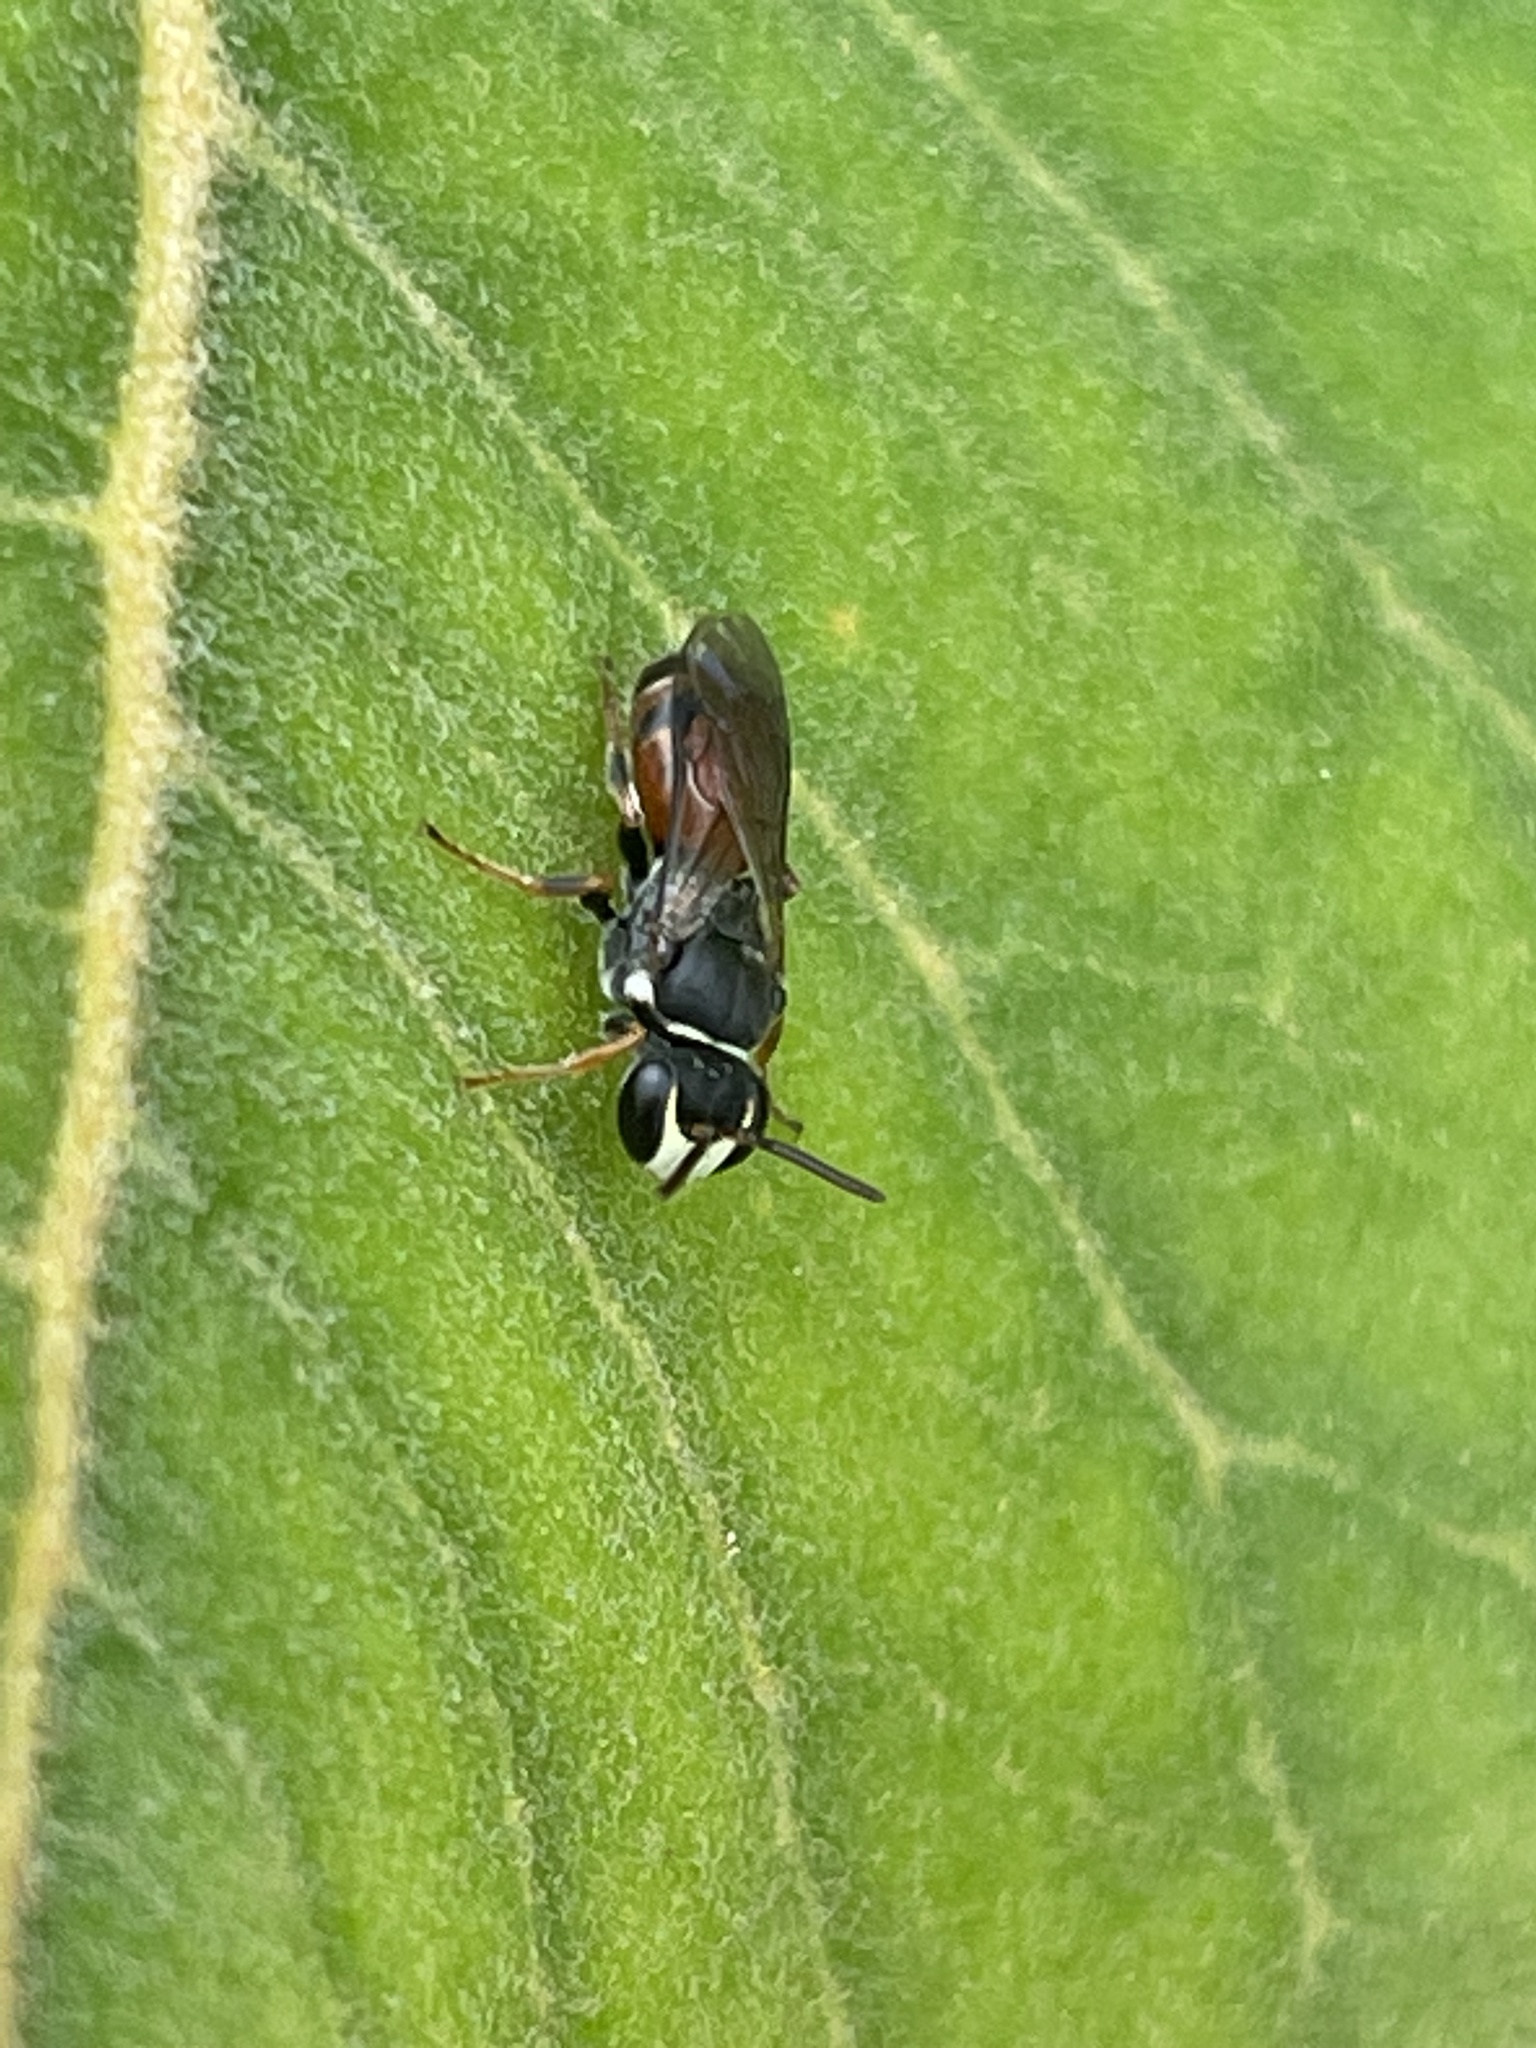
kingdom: Animalia
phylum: Arthropoda
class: Insecta
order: Hymenoptera
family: Colletidae
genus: Hylaeus
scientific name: Hylaeus littleri
